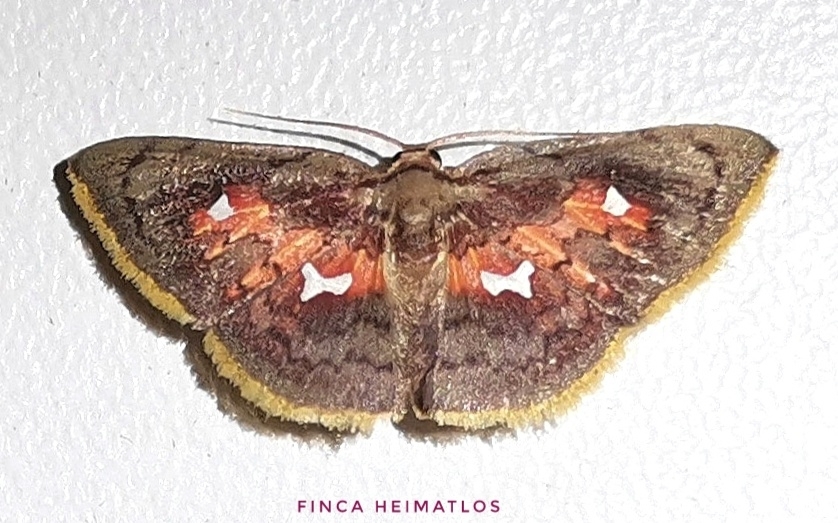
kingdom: Animalia
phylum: Arthropoda
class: Insecta
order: Lepidoptera
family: Geometridae
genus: Tricentra
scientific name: Tricentra quadrigata
